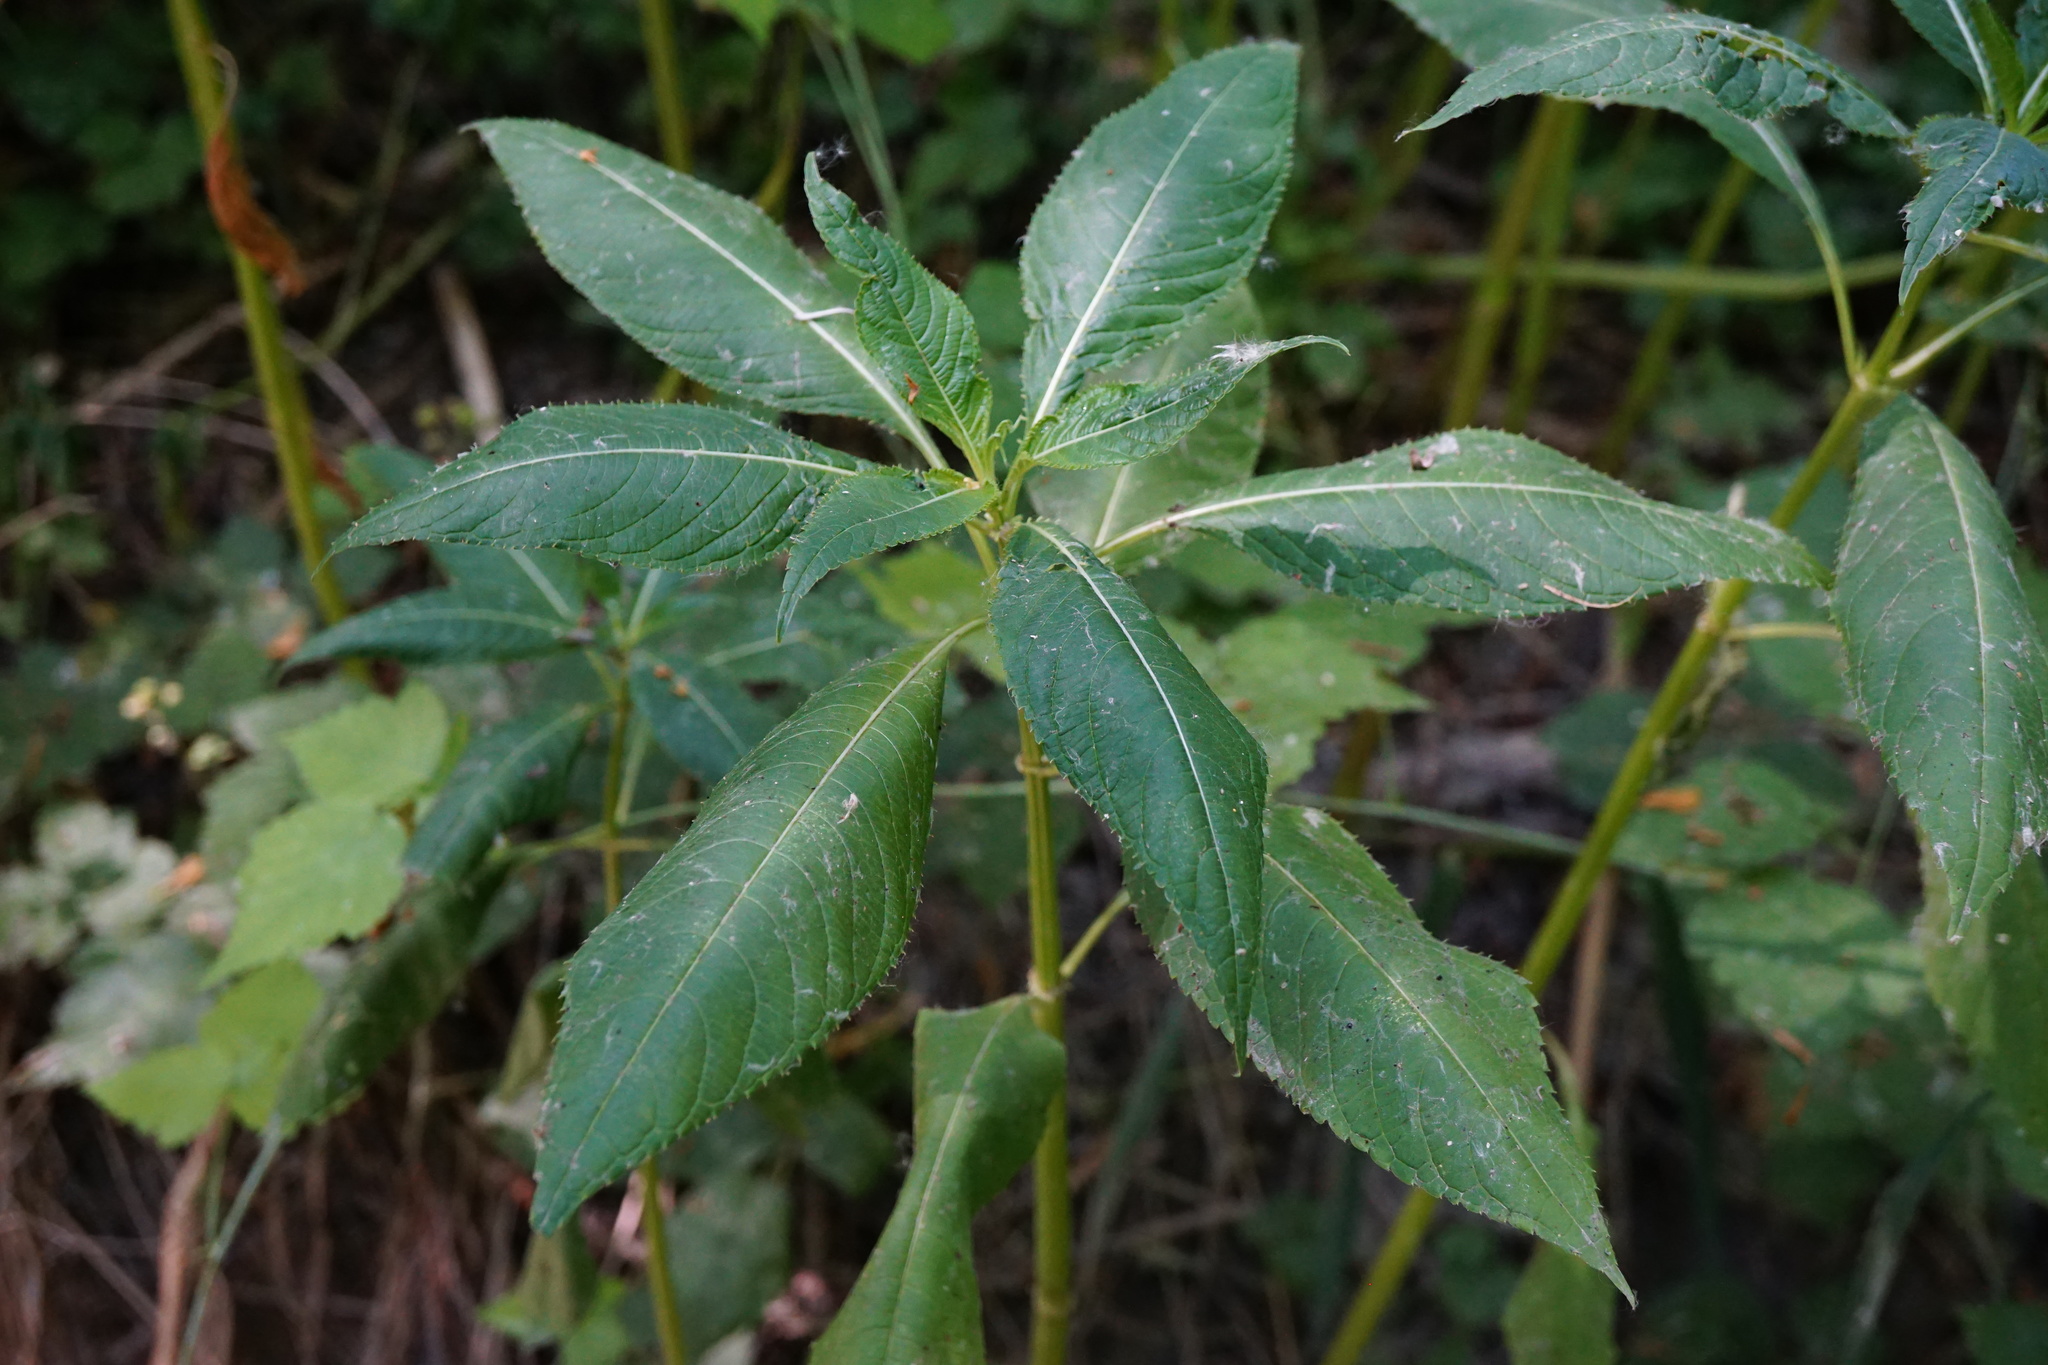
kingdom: Plantae
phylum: Tracheophyta
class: Magnoliopsida
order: Ericales
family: Balsaminaceae
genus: Impatiens
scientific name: Impatiens glandulifera
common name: Himalayan balsam
